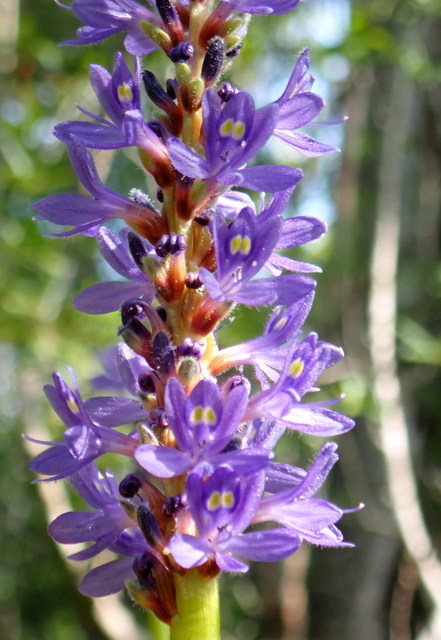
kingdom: Plantae
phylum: Tracheophyta
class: Liliopsida
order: Commelinales
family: Pontederiaceae
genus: Pontederia
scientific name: Pontederia cordata
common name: Pickerelweed
